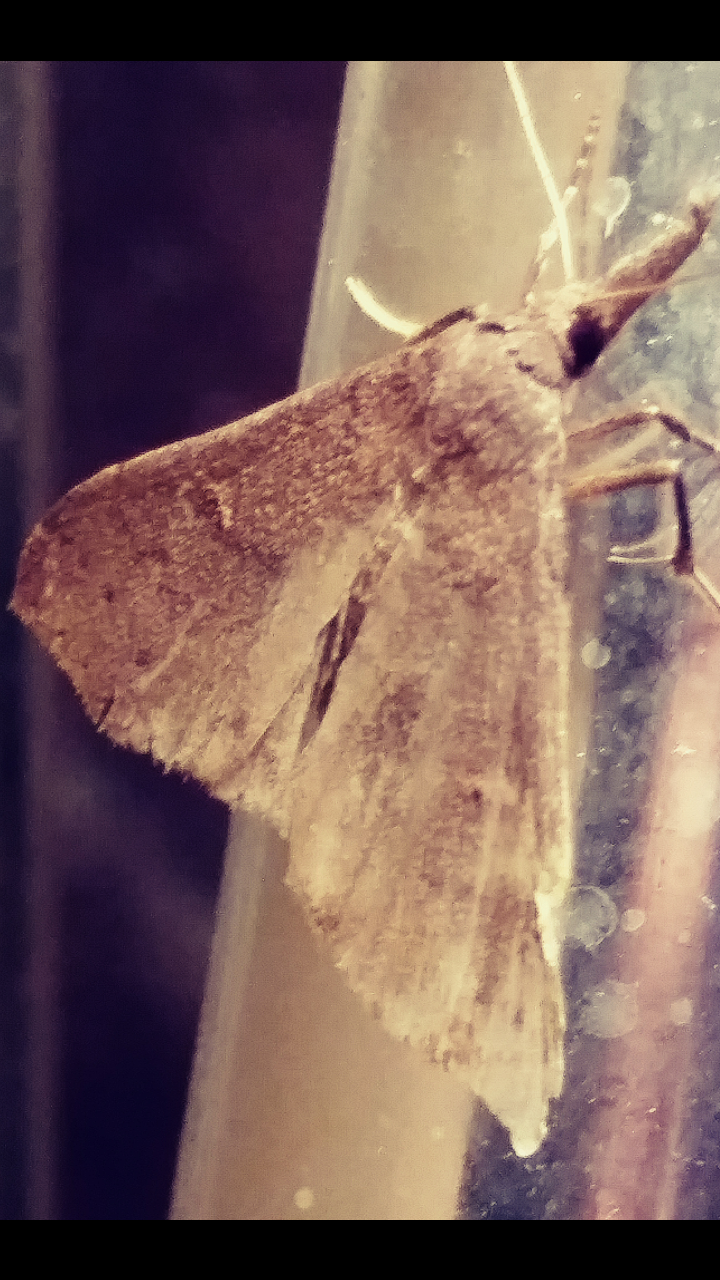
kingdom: Animalia
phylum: Arthropoda
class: Insecta
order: Lepidoptera
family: Erebidae
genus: Renia
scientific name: Renia adspergillus
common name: Speckled renia moth
